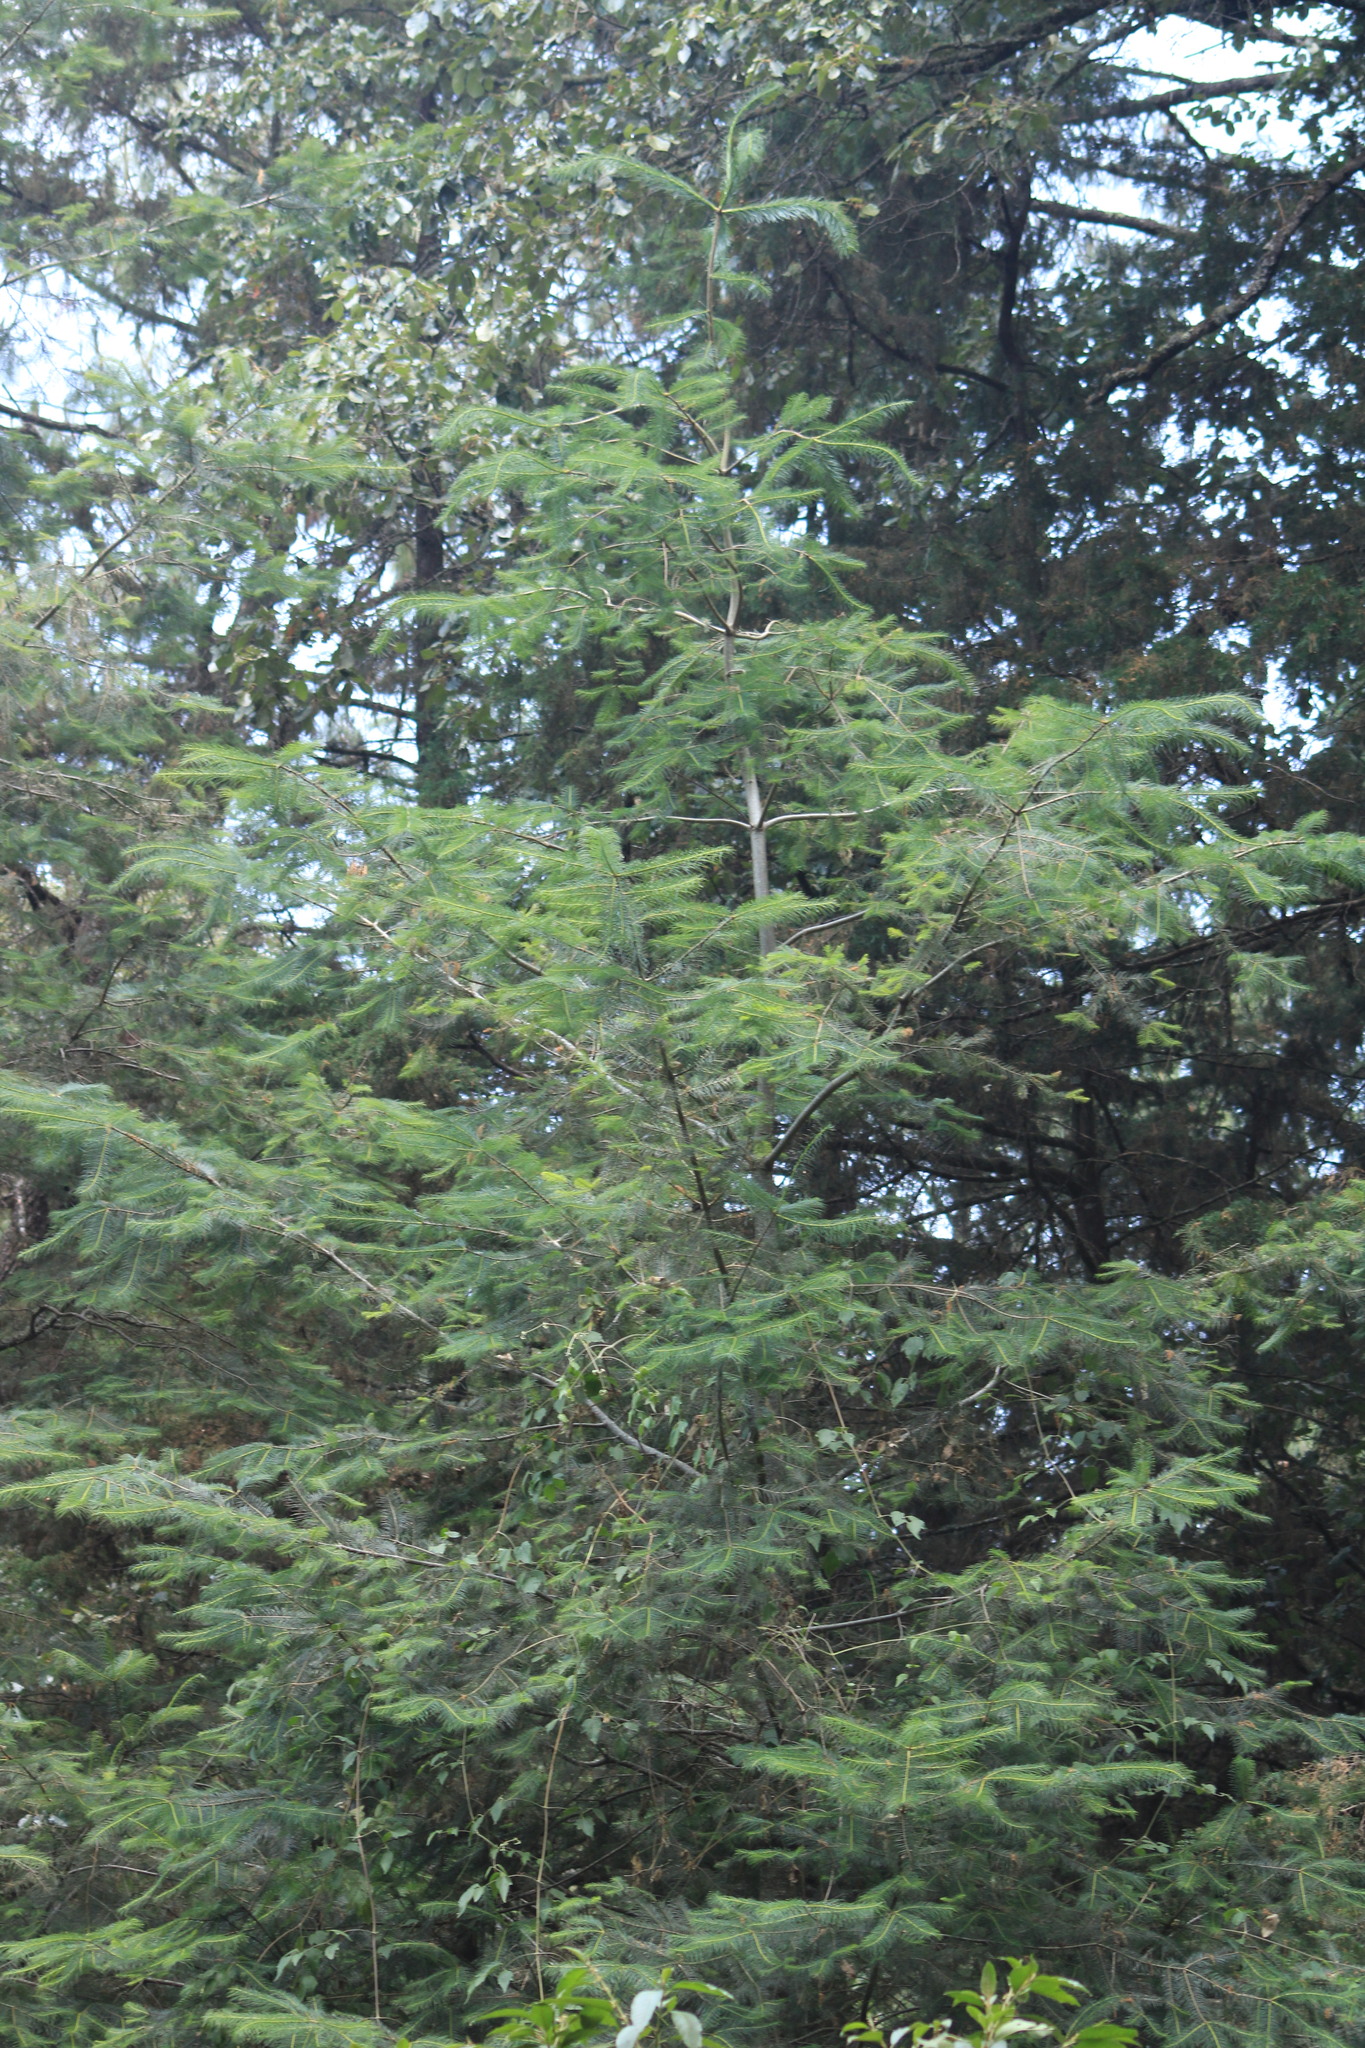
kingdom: Plantae
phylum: Tracheophyta
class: Pinopsida
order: Pinales
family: Pinaceae
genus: Abies
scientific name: Abies guatemalensis
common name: Guatemalan fir
